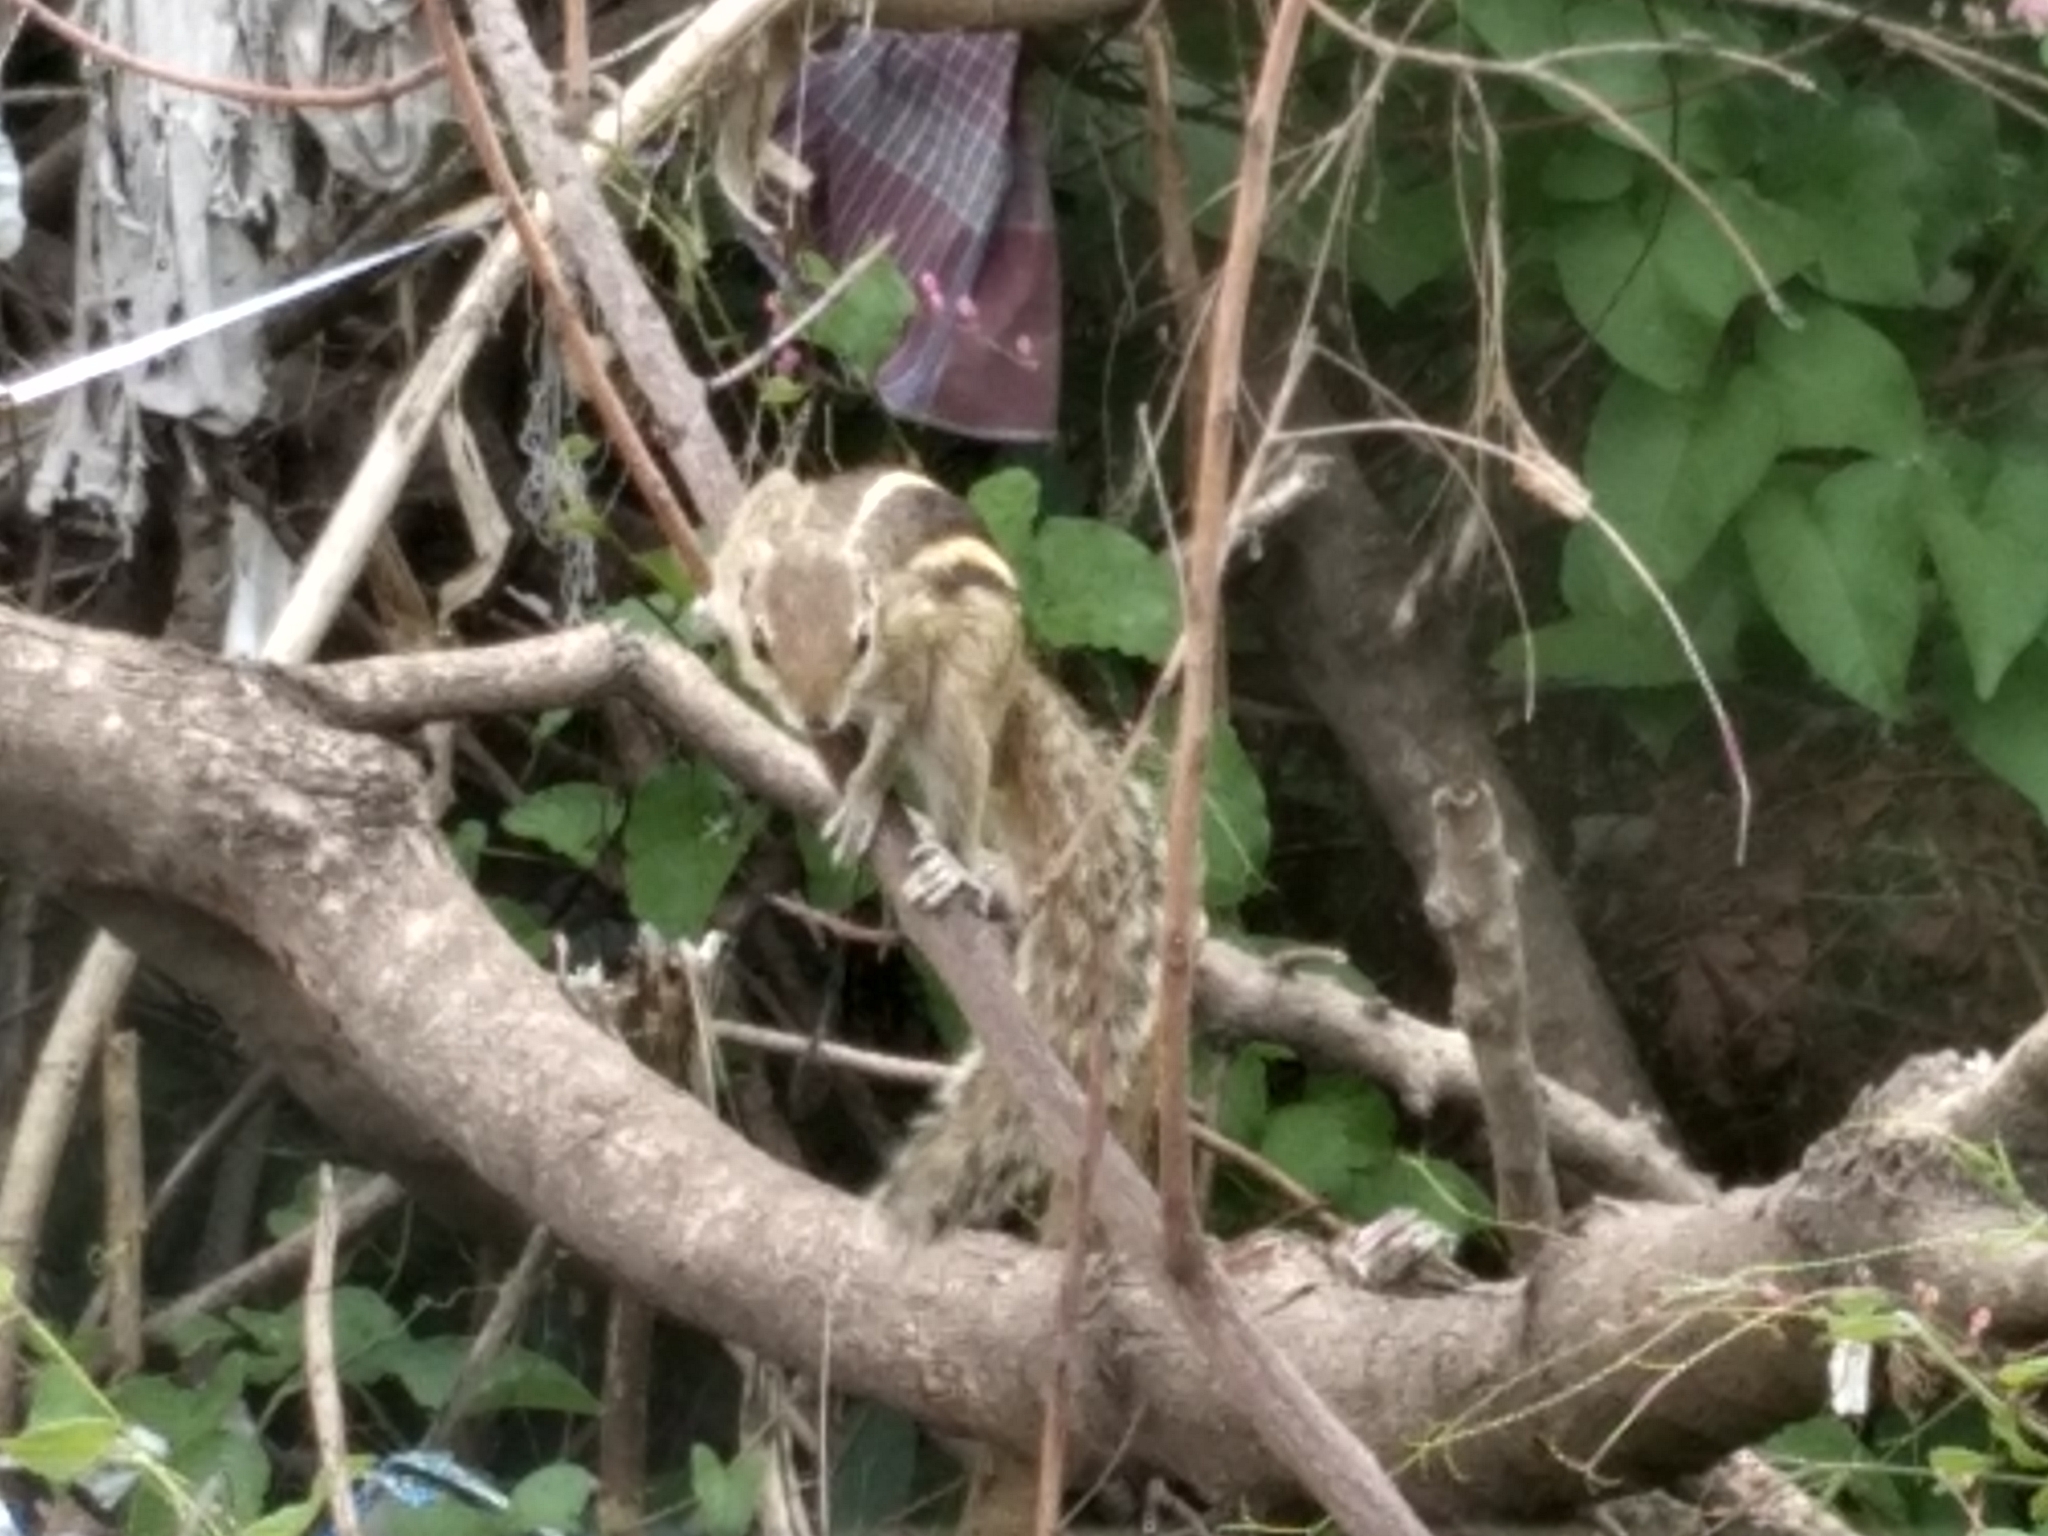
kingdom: Animalia
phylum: Chordata
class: Mammalia
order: Rodentia
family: Sciuridae
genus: Funambulus
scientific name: Funambulus palmarum
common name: Indian palm squirrel
